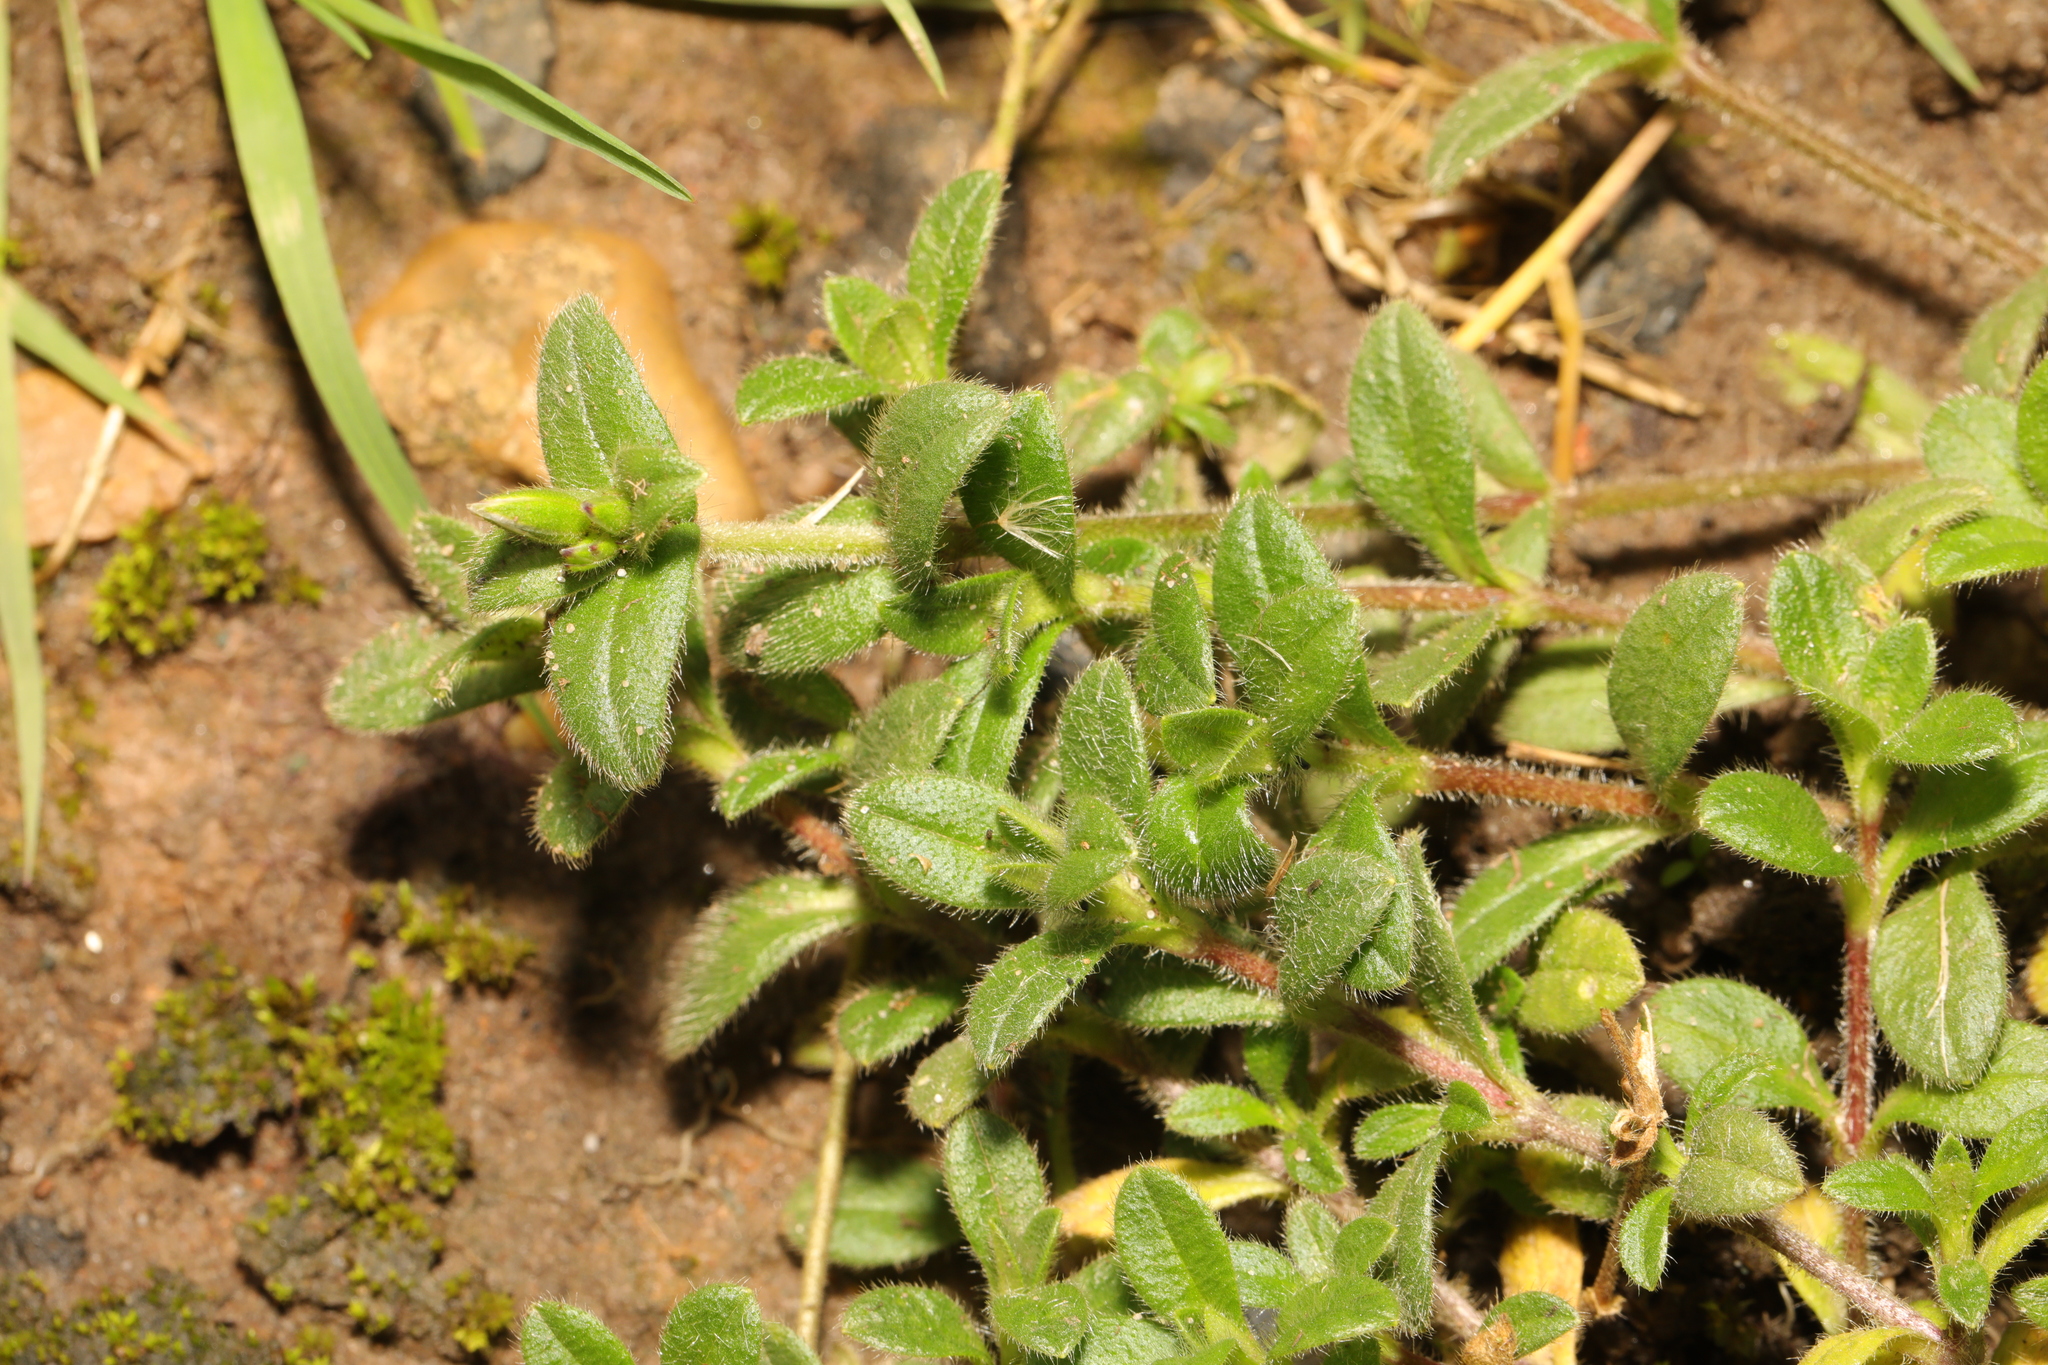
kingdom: Plantae
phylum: Tracheophyta
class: Magnoliopsida
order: Caryophyllales
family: Caryophyllaceae
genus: Cerastium
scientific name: Cerastium fontanum
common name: Common mouse-ear
